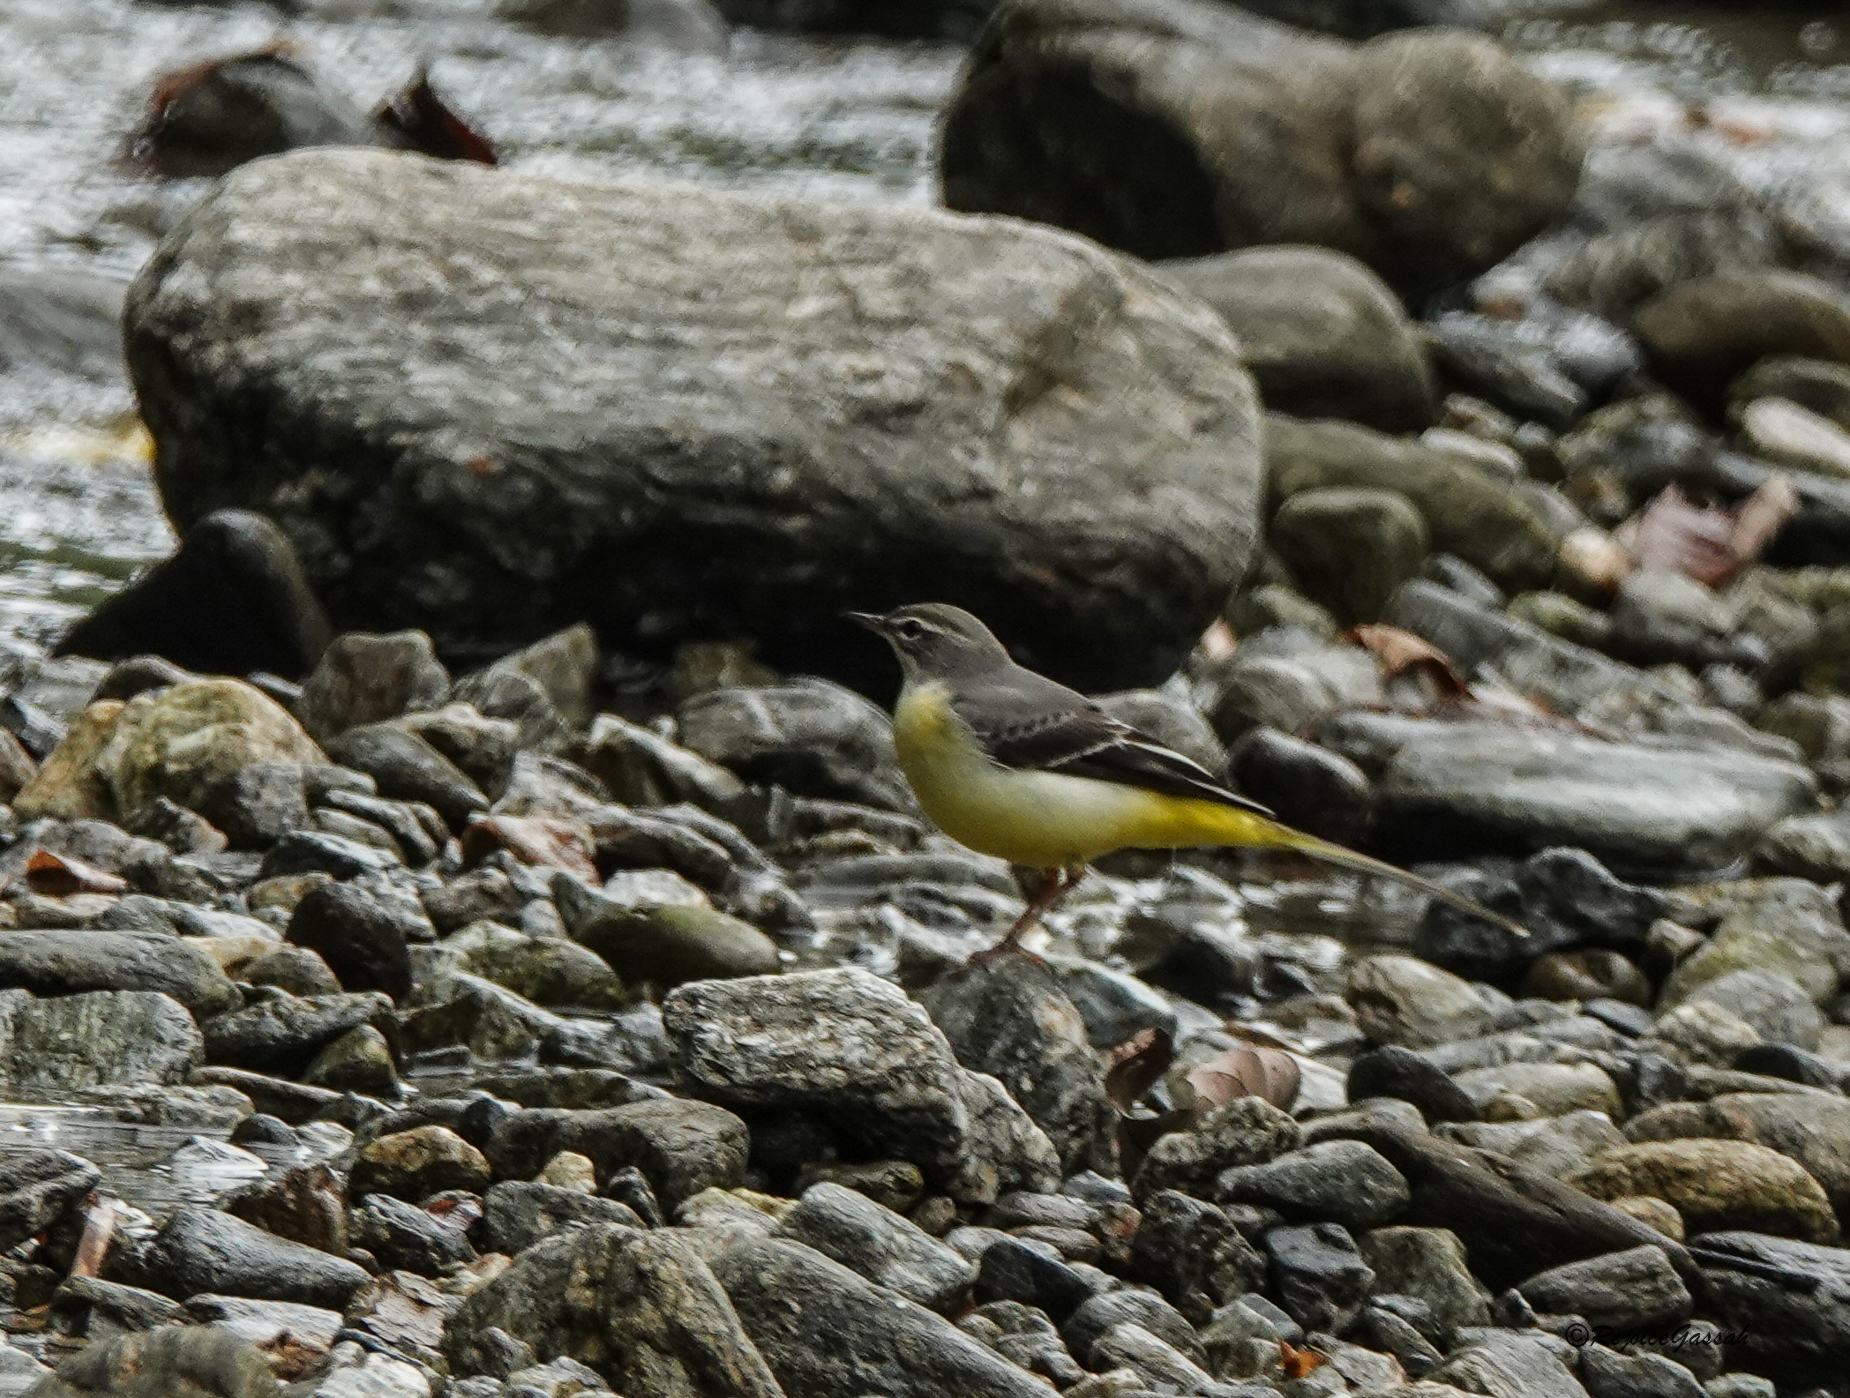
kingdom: Animalia
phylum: Chordata
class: Aves
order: Passeriformes
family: Motacillidae
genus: Motacilla
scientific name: Motacilla cinerea
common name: Grey wagtail
